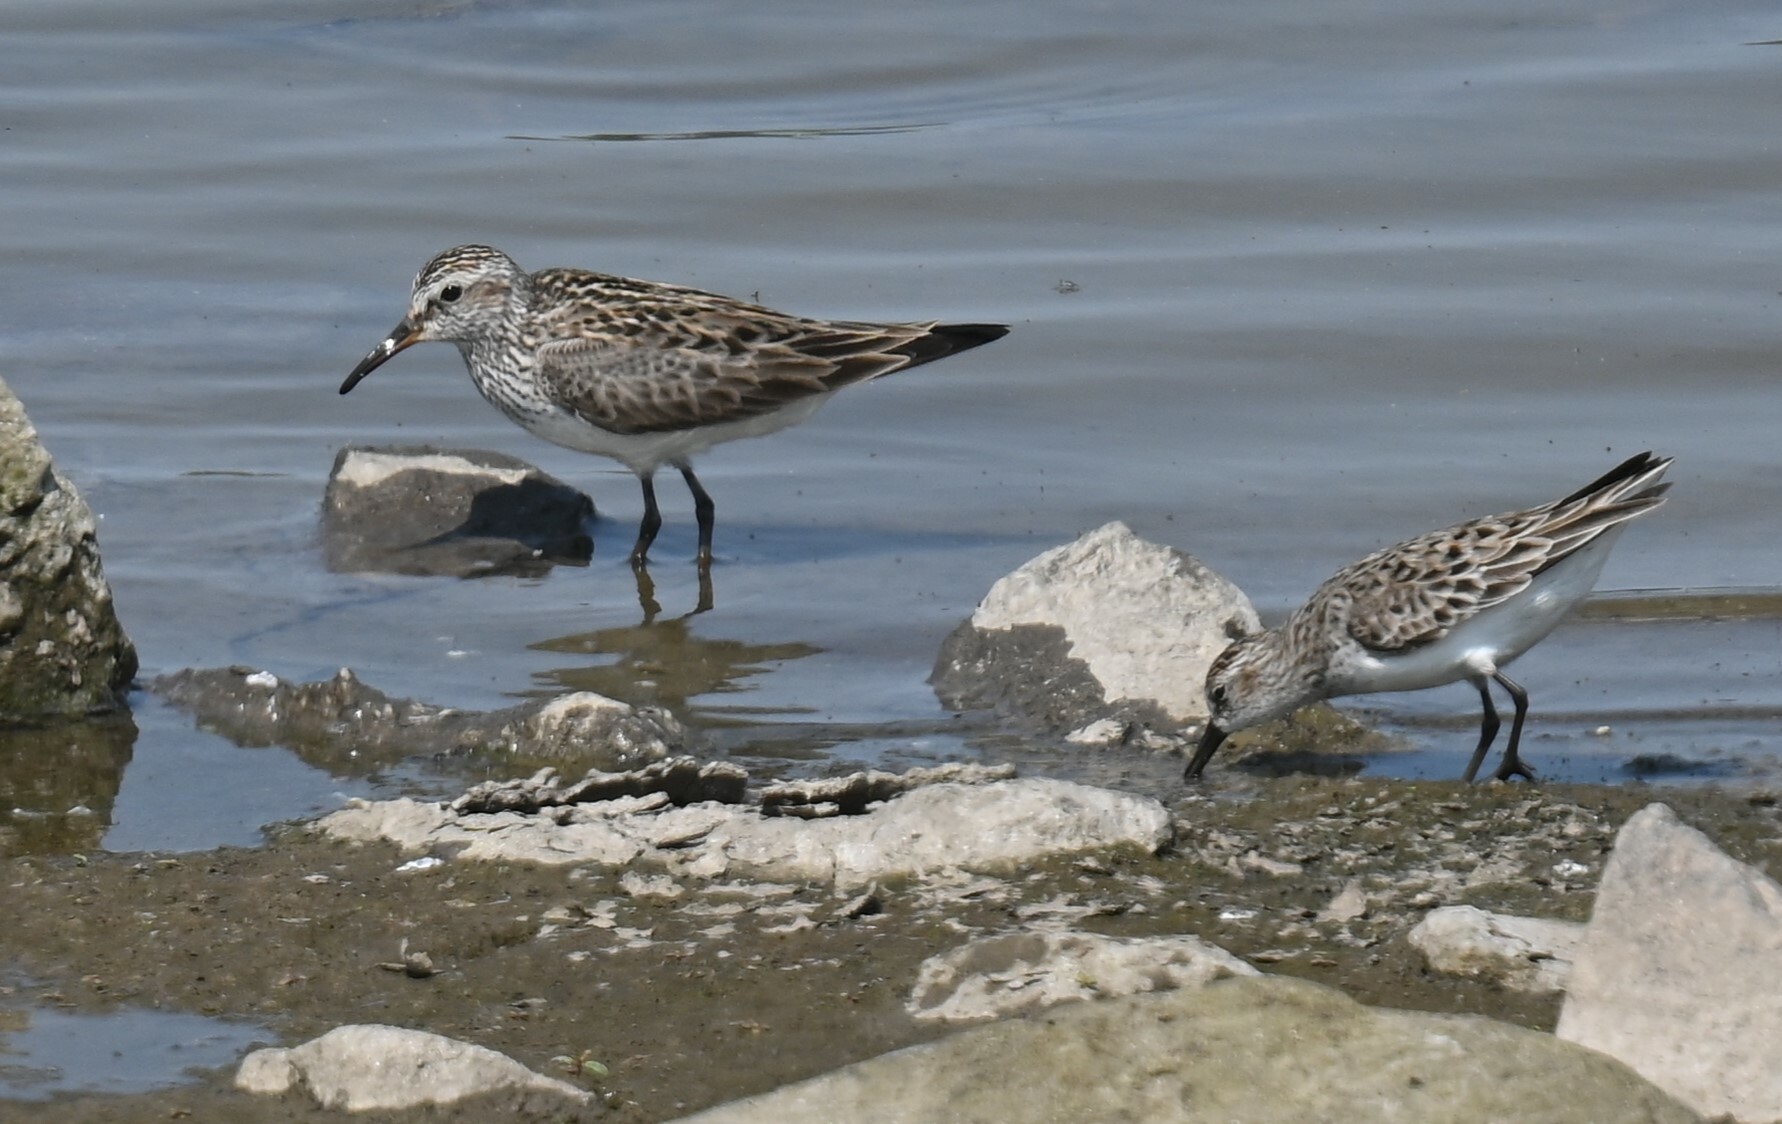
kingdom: Animalia
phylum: Chordata
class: Aves
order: Charadriiformes
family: Scolopacidae
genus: Calidris
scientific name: Calidris fuscicollis
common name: White-rumped sandpiper
